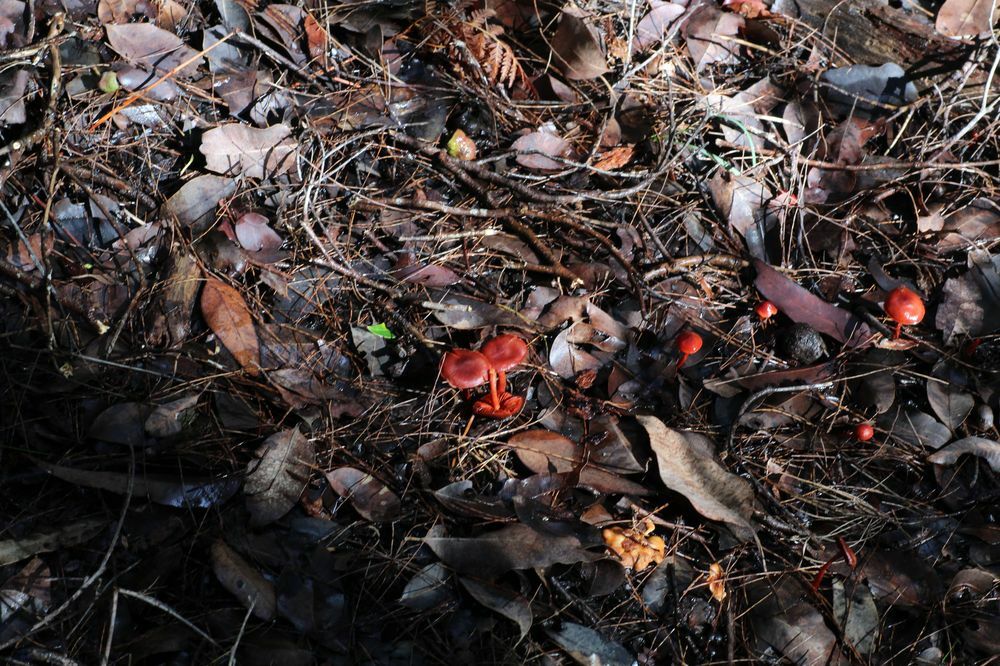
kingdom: Fungi
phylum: Basidiomycota
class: Agaricomycetes
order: Agaricales
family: Cortinariaceae
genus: Cortinarius
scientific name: Cortinarius erythrocephalus
